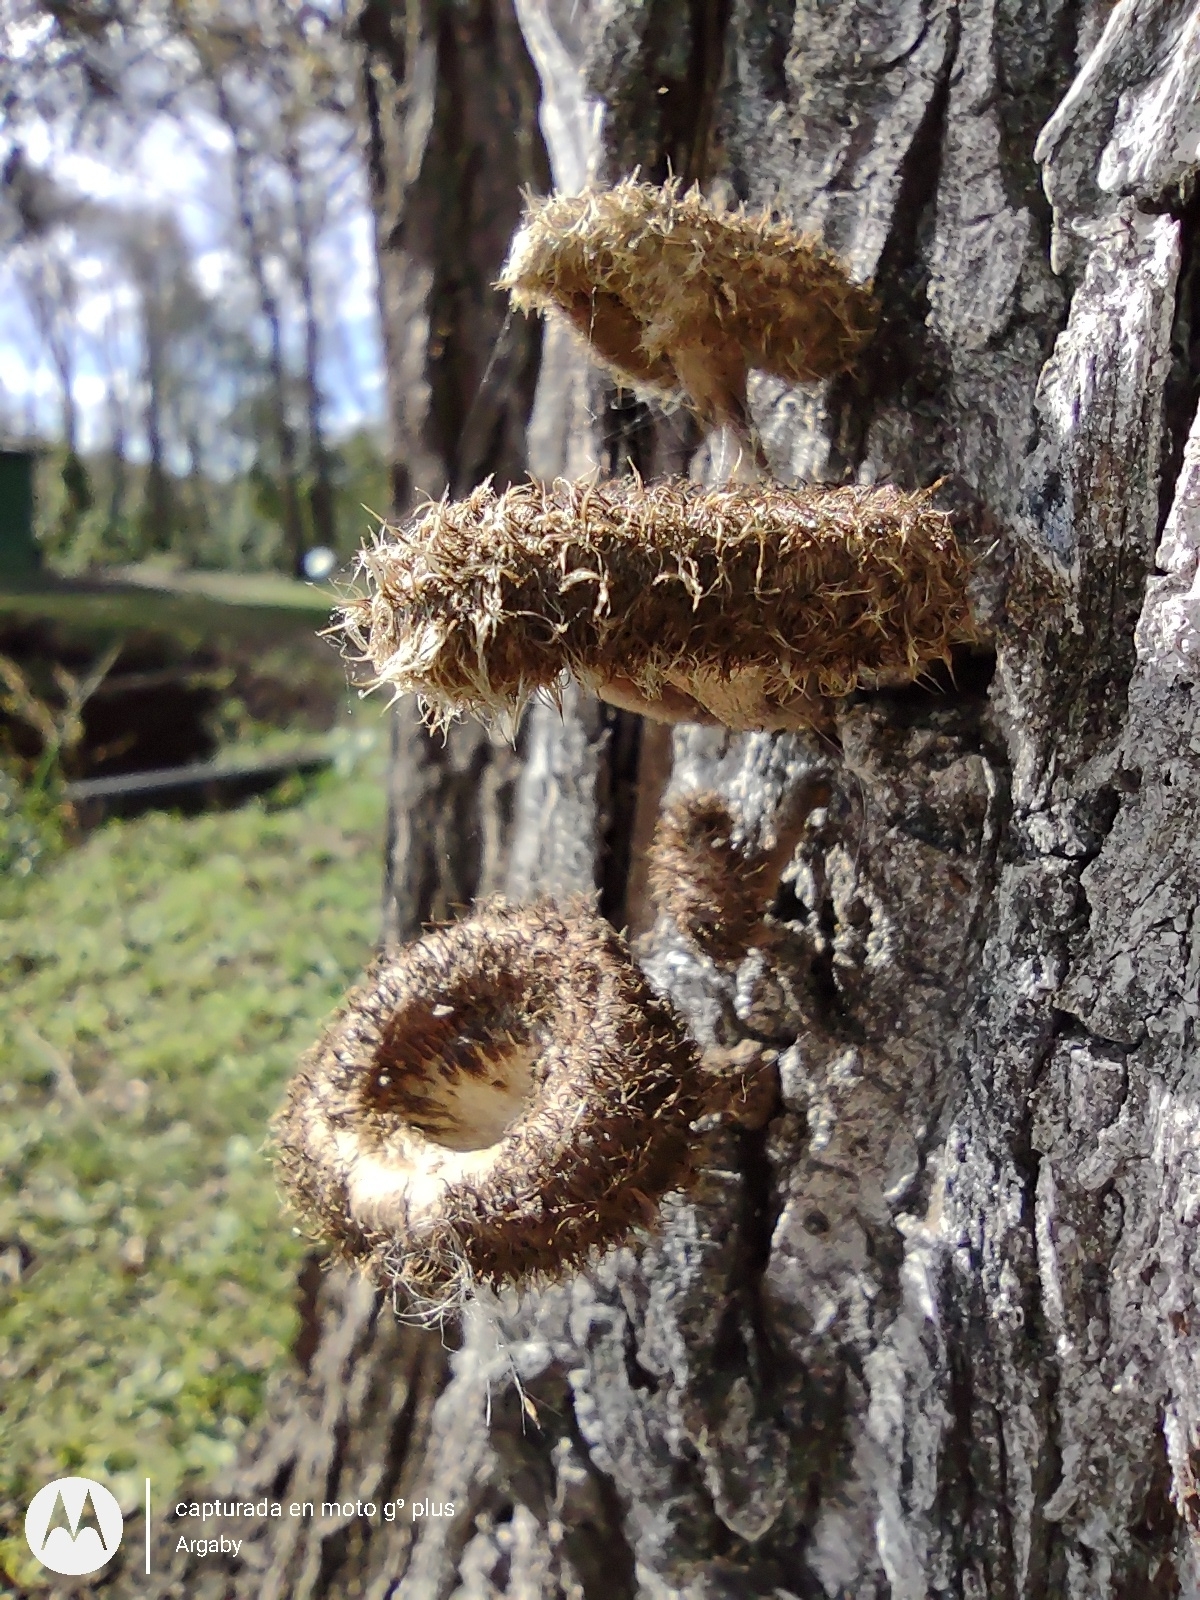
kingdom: Fungi
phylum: Basidiomycota
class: Agaricomycetes
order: Polyporales
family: Polyporaceae
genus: Lentinus
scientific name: Lentinus berteroi
